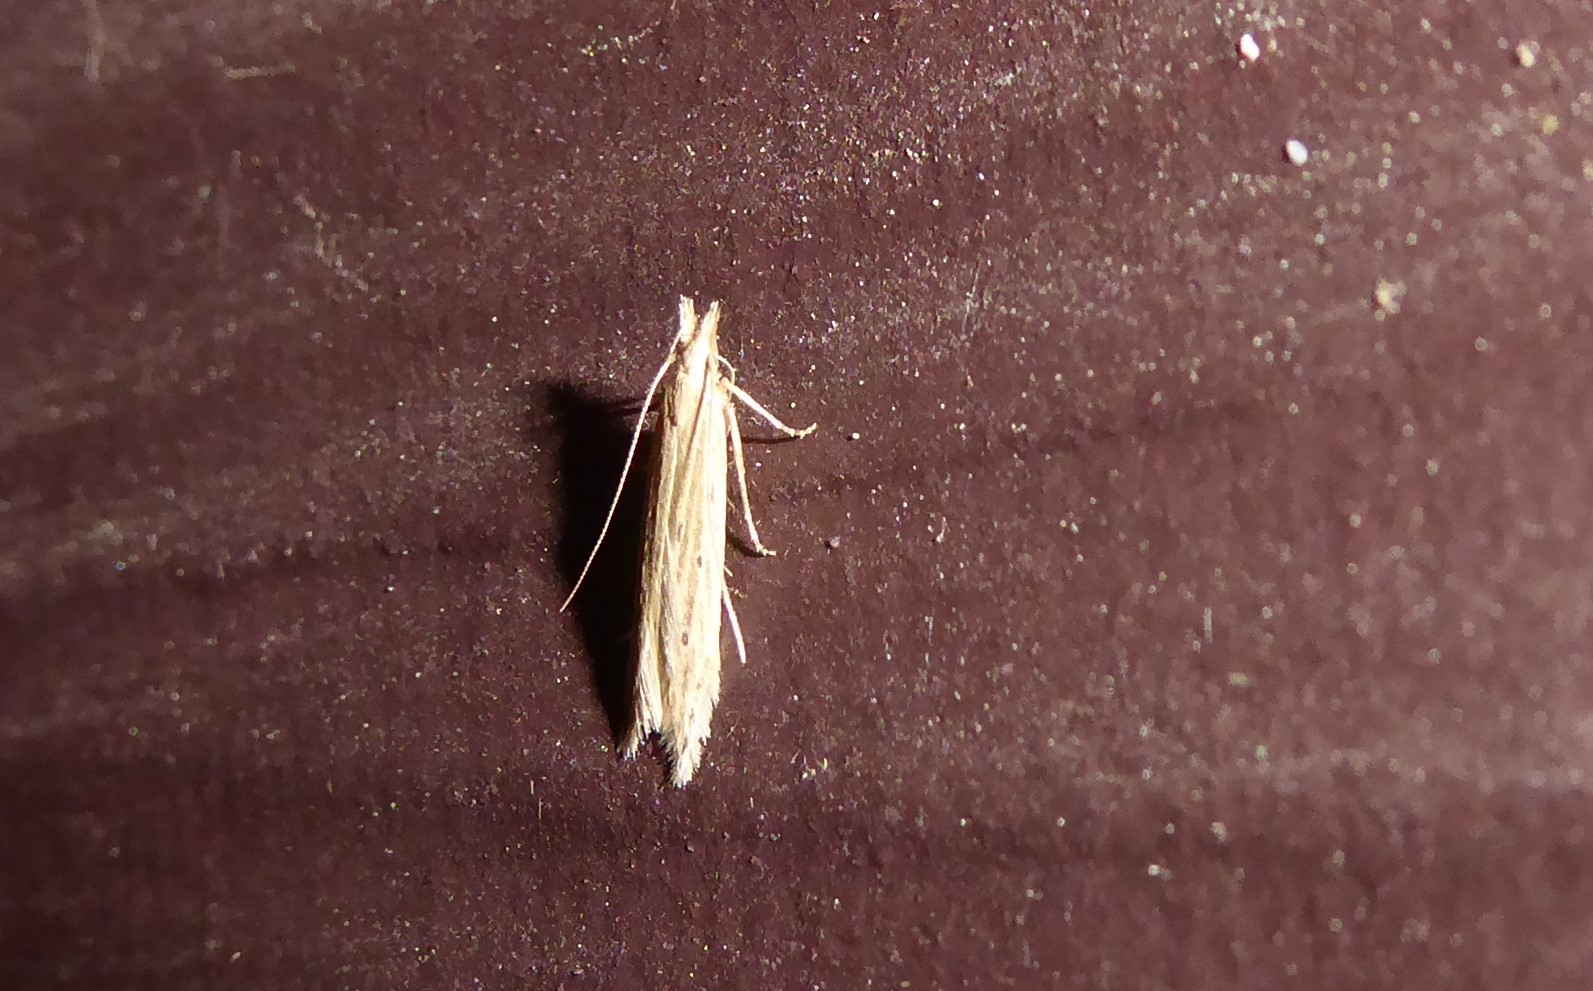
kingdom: Animalia
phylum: Arthropoda
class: Insecta
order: Lepidoptera
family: Gelechiidae
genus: Epiphthora
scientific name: Epiphthora calamogonus
